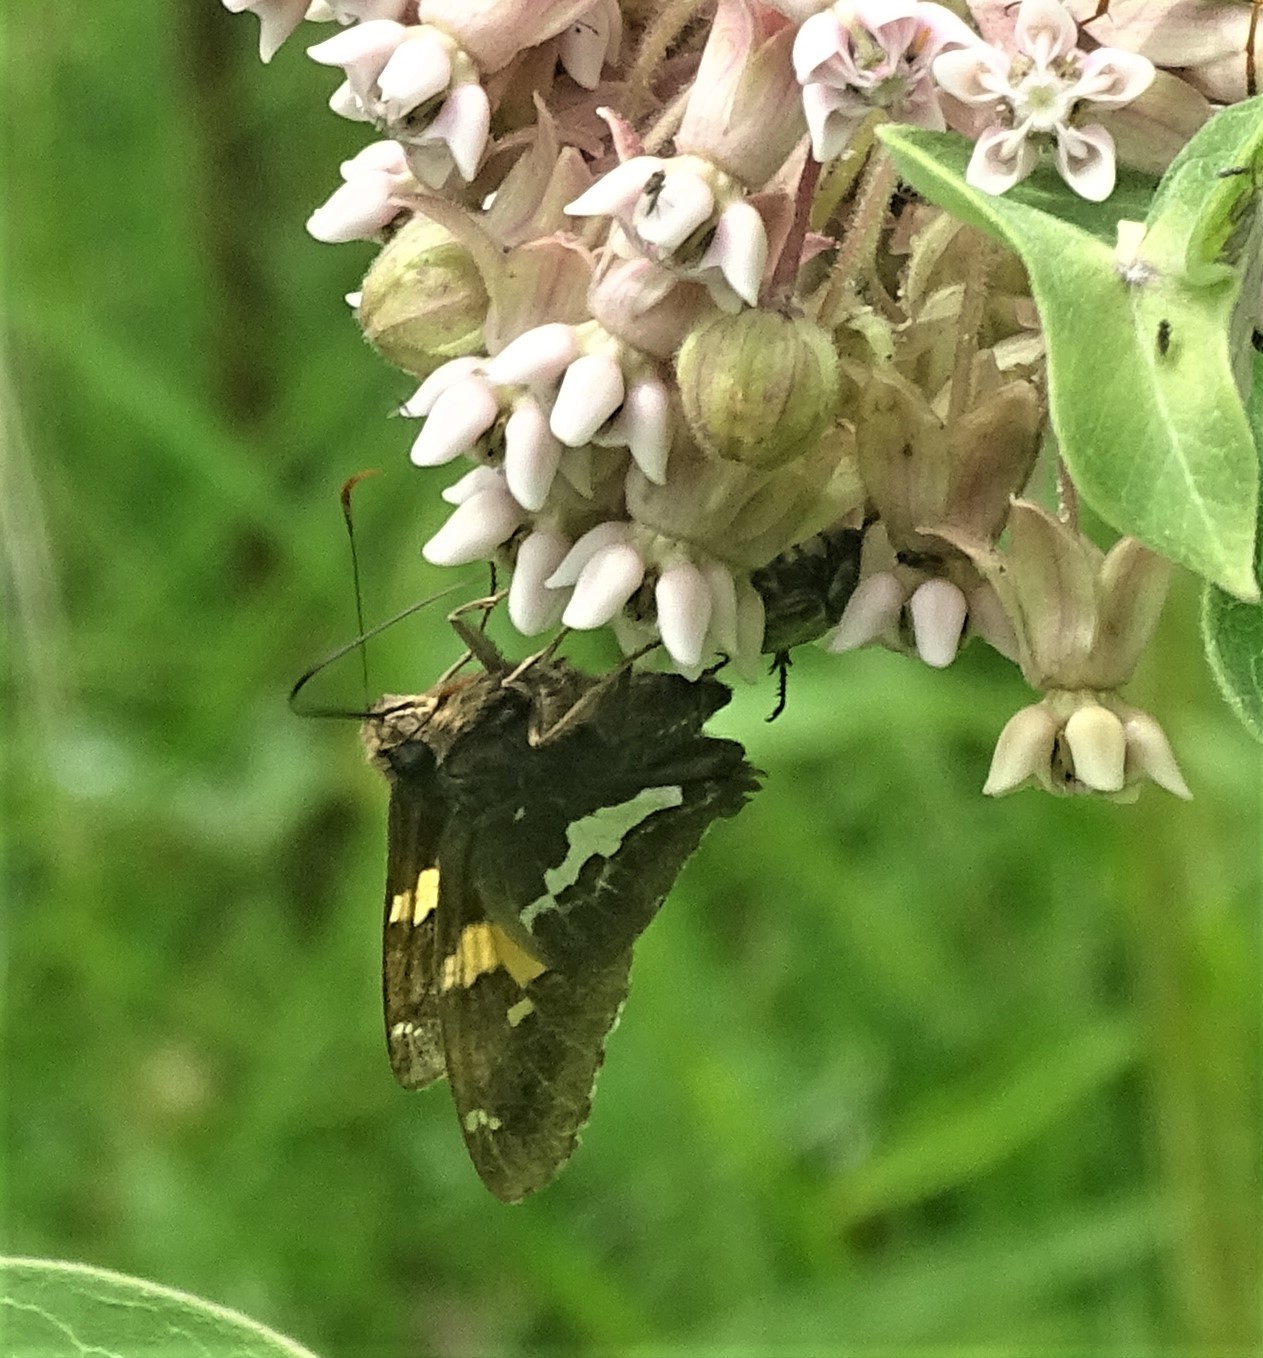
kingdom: Animalia
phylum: Arthropoda
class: Insecta
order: Lepidoptera
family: Hesperiidae
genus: Epargyreus
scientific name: Epargyreus clarus
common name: Silver-spotted skipper
